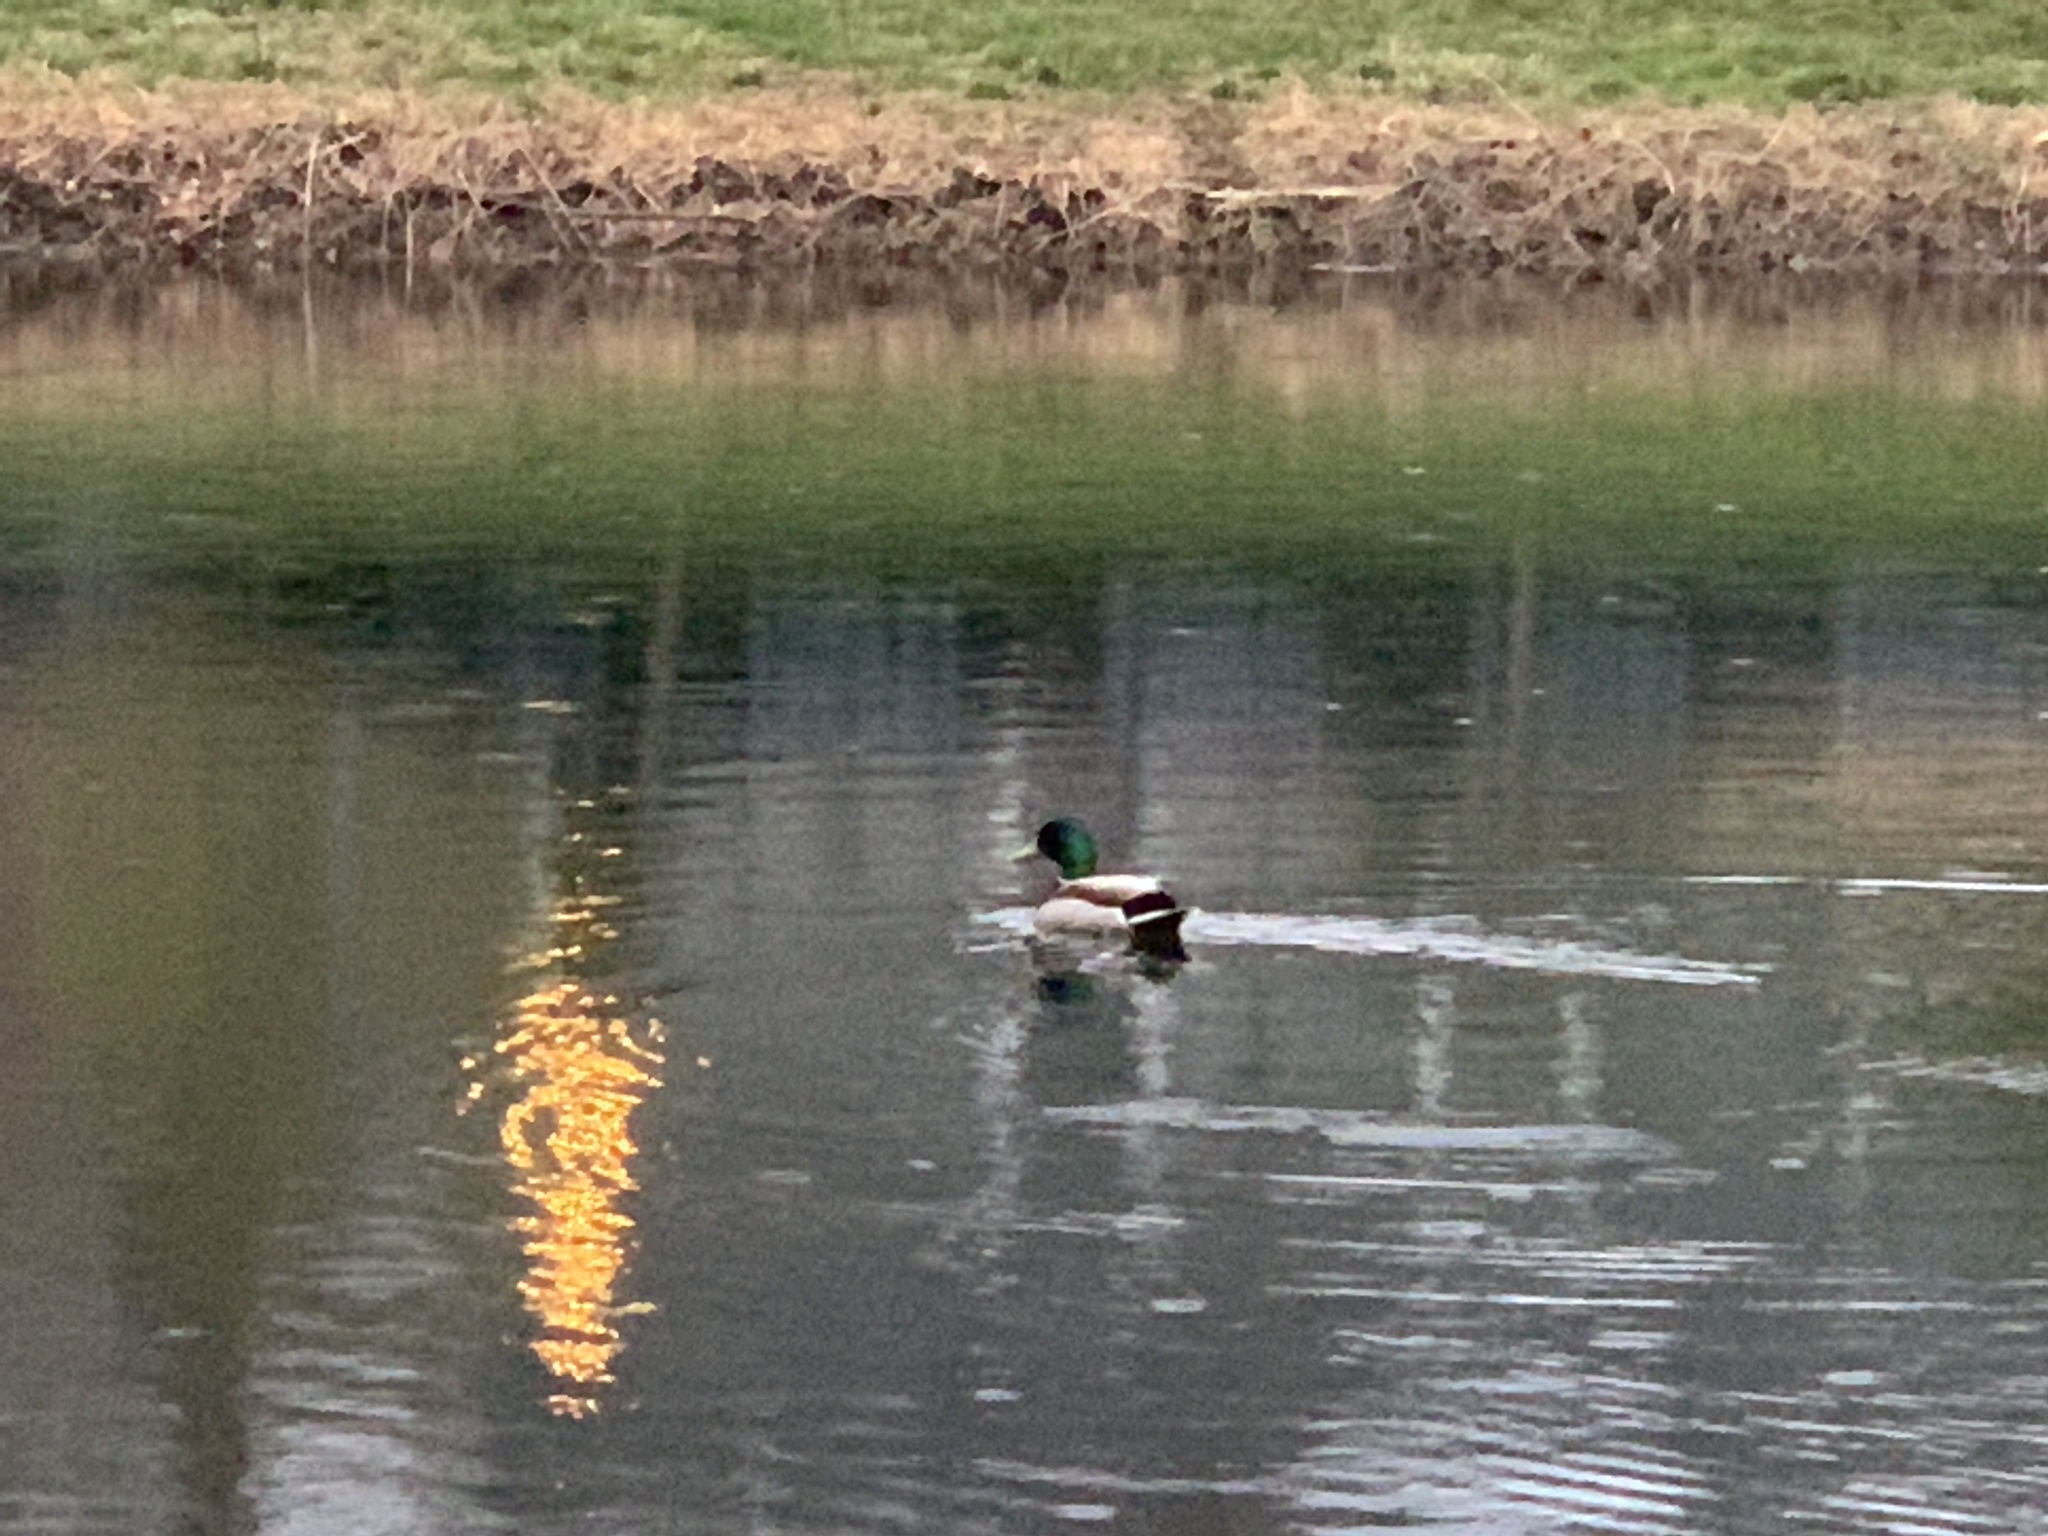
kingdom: Animalia
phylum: Chordata
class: Aves
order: Anseriformes
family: Anatidae
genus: Anas
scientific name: Anas platyrhynchos
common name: Mallard
